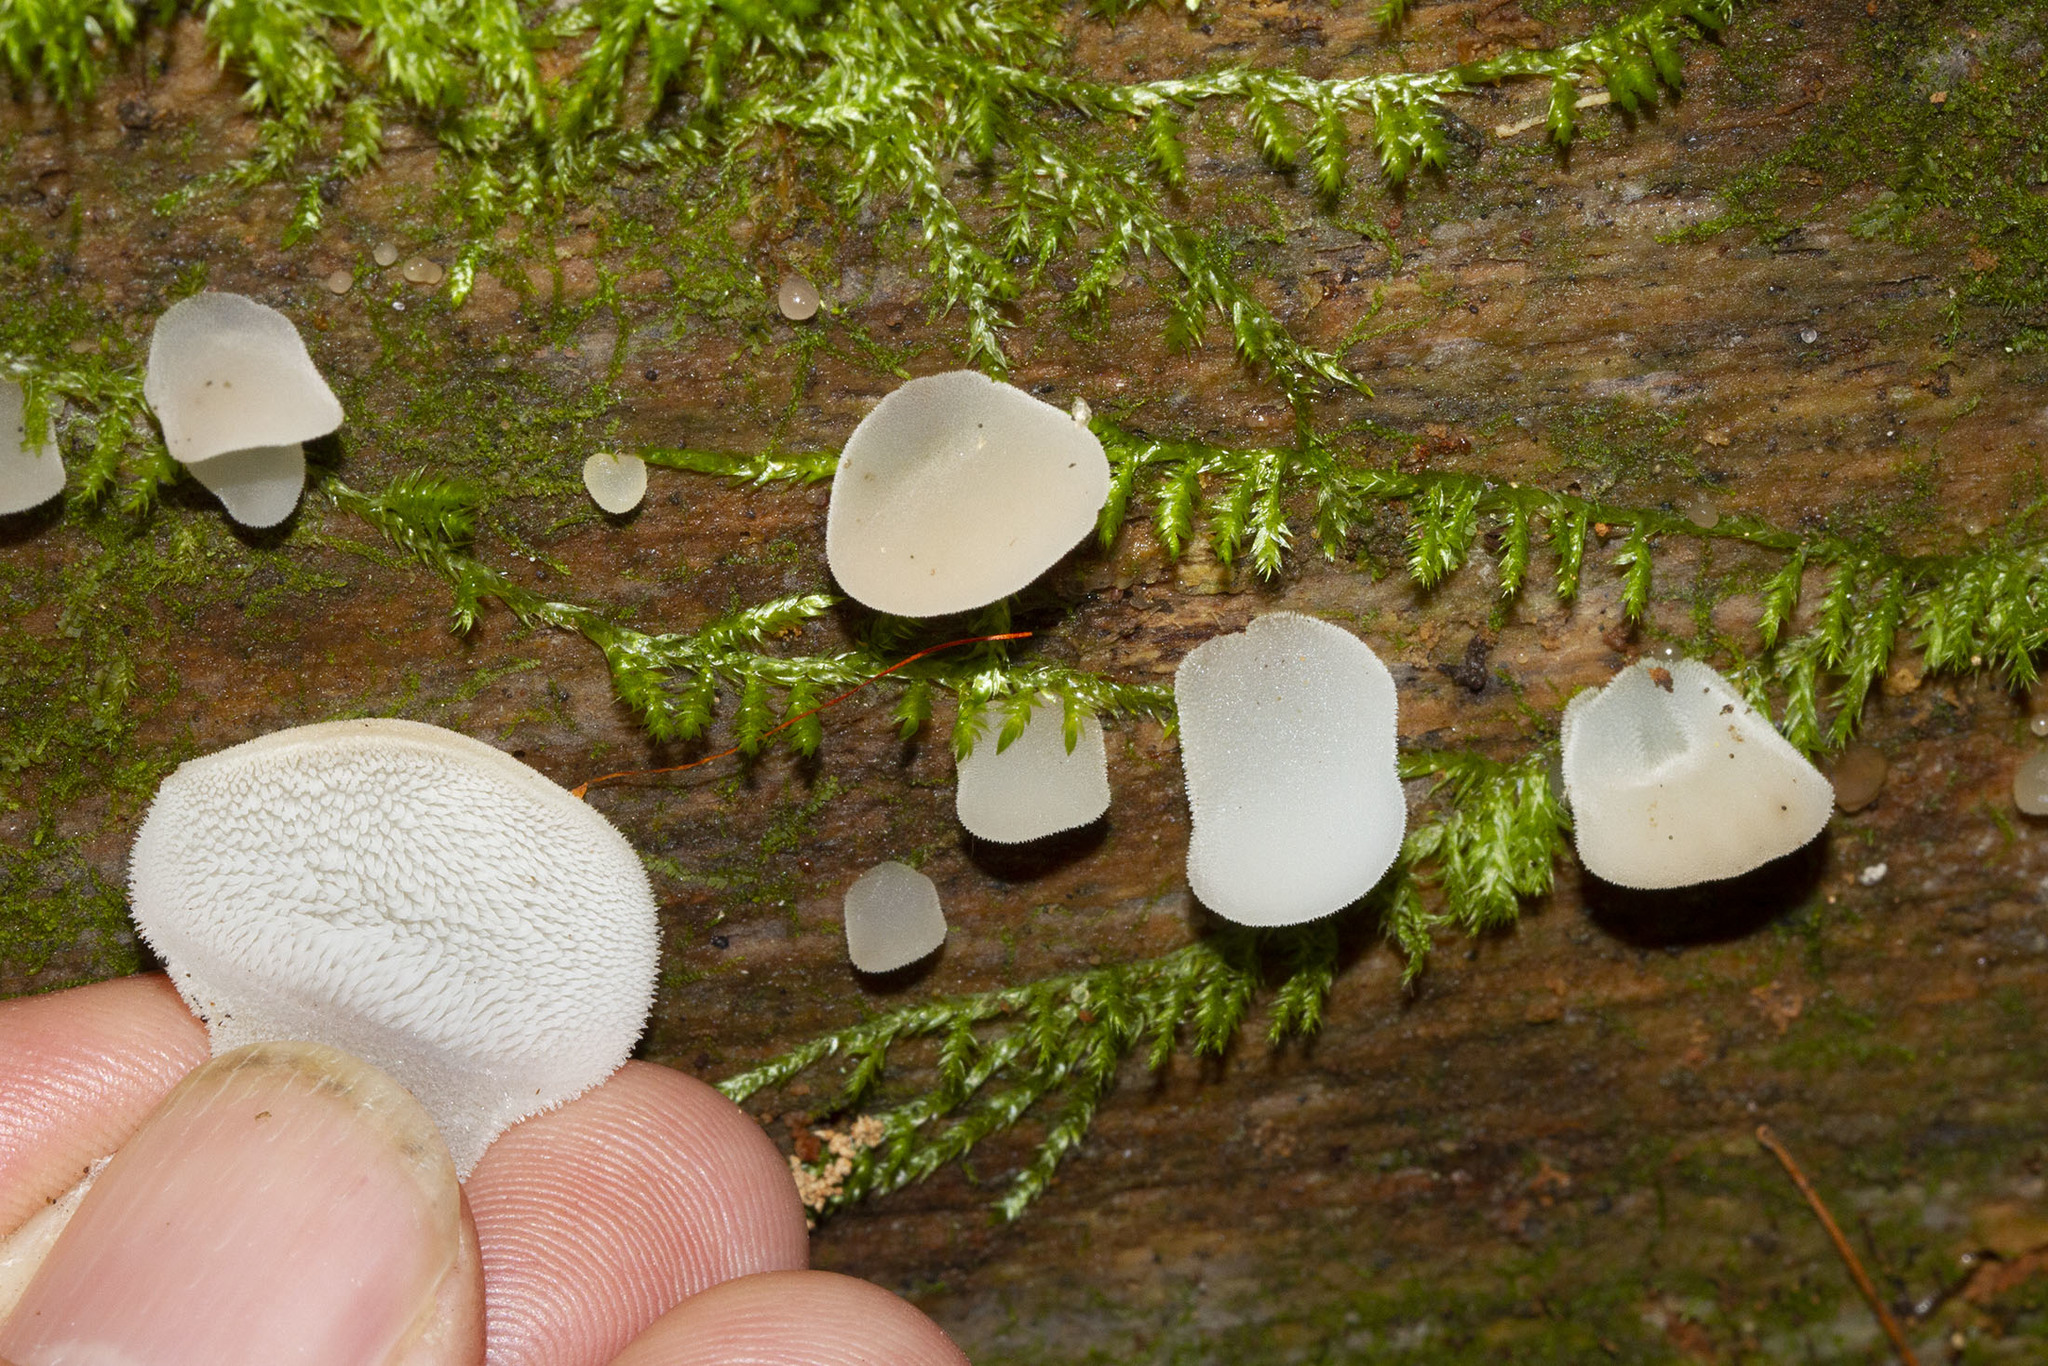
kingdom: Fungi
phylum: Basidiomycota
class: Agaricomycetes
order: Auriculariales
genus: Pseudohydnum
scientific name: Pseudohydnum gelatinosum
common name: Jelly tongue
